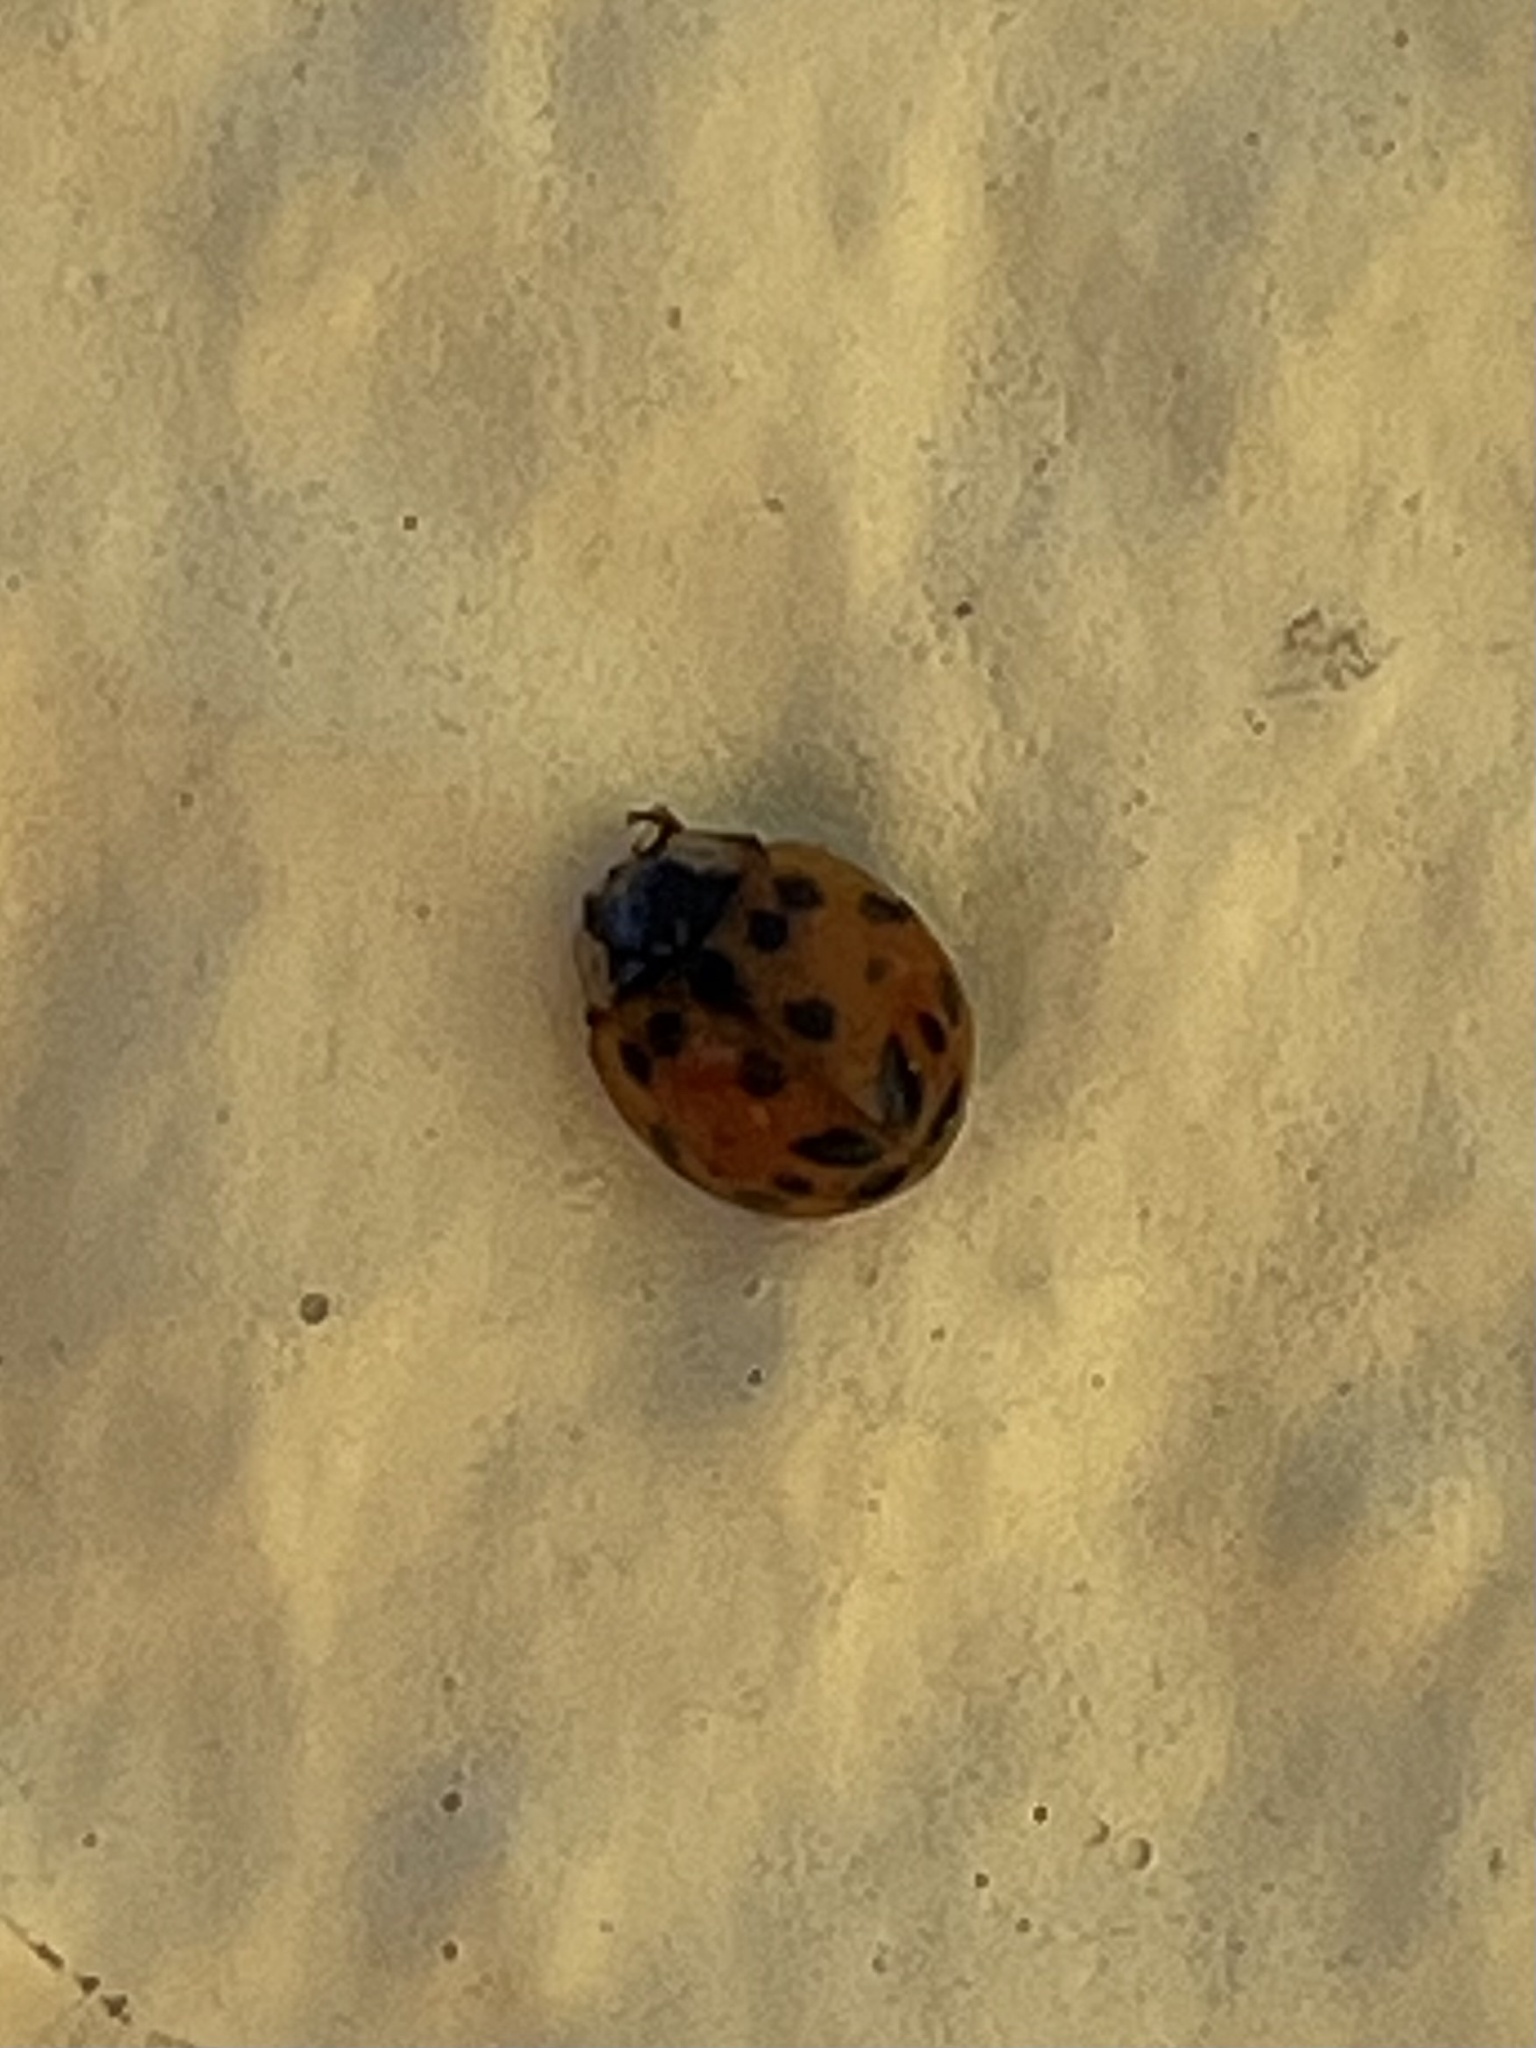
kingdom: Animalia
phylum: Arthropoda
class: Insecta
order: Coleoptera
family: Coccinellidae
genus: Harmonia
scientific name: Harmonia axyridis
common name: Harlequin ladybird
